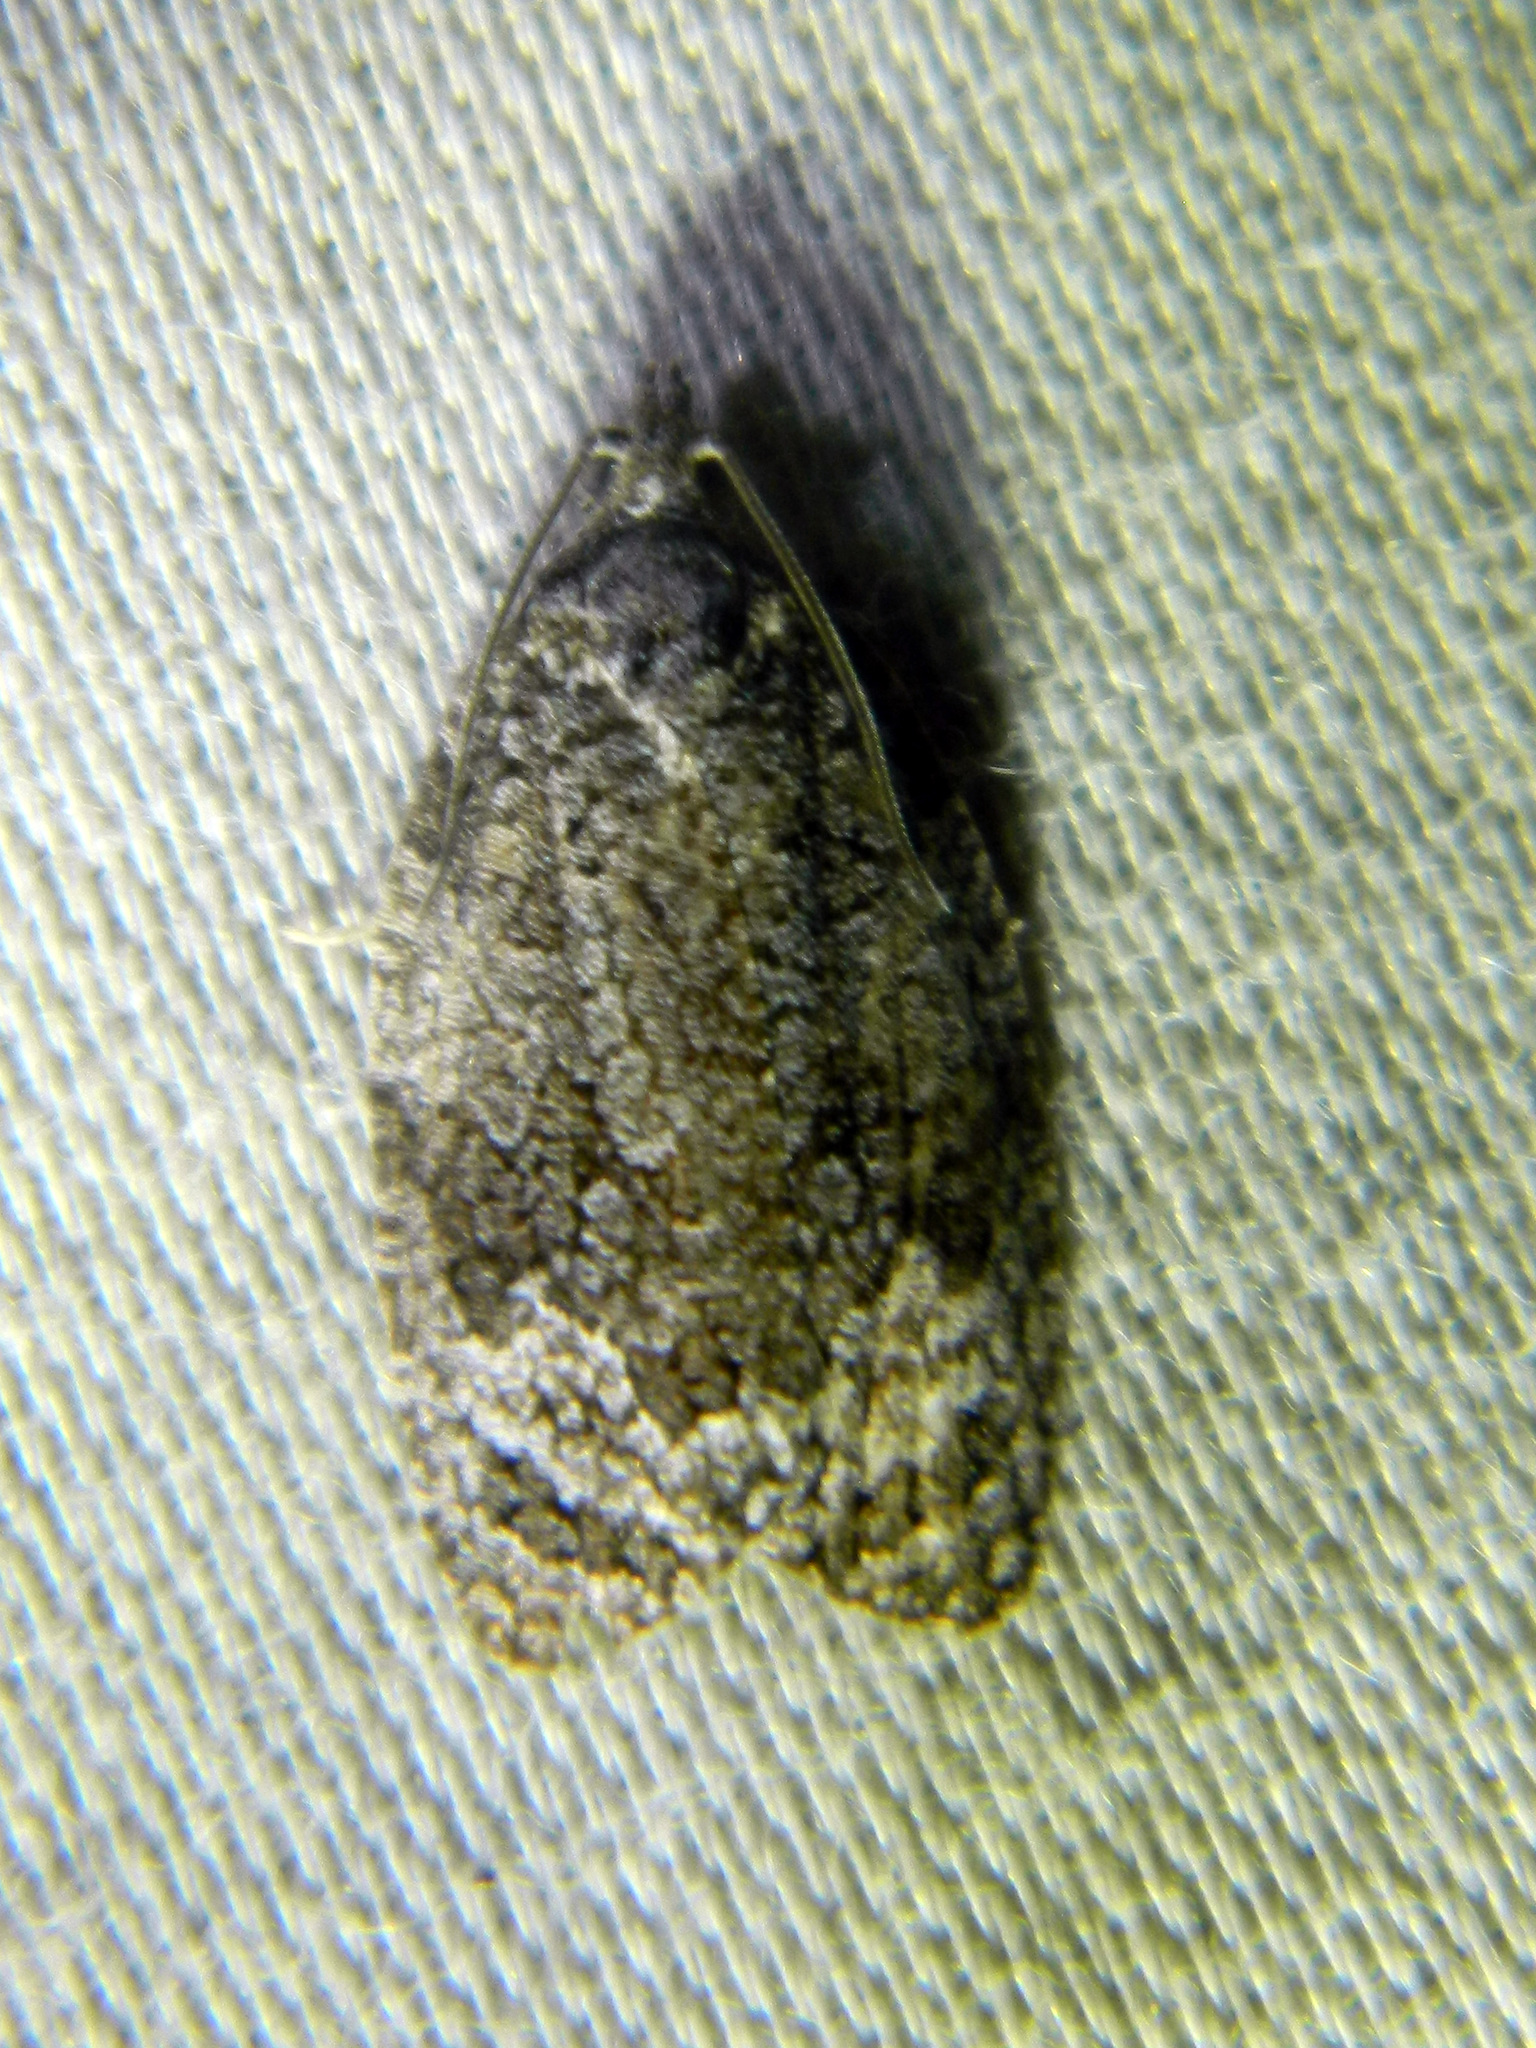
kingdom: Animalia
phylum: Arthropoda
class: Insecta
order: Lepidoptera
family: Tortricidae
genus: Apotomis
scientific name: Apotomis removana
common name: Green aspen leafroller
